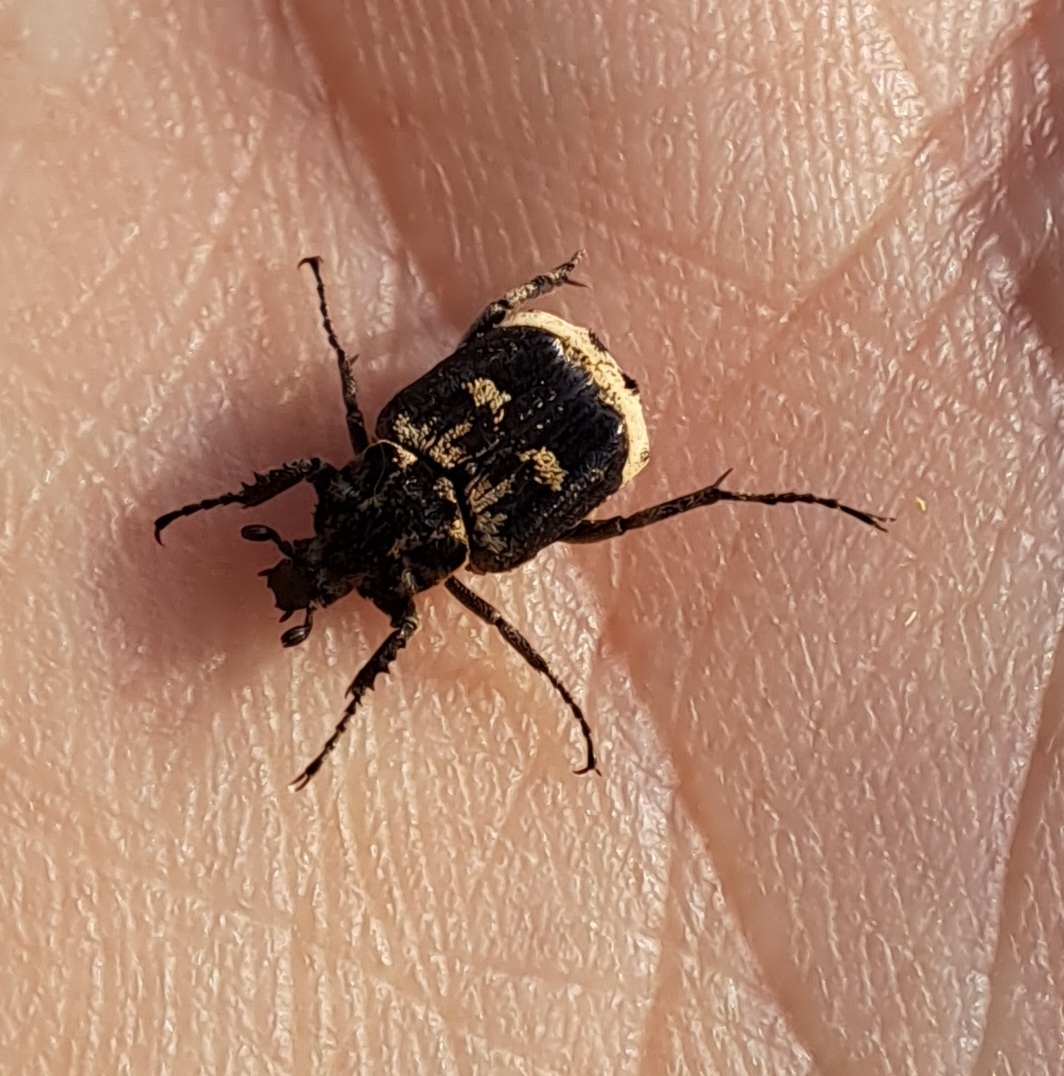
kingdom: Animalia
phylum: Arthropoda
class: Insecta
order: Coleoptera
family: Scarabaeidae
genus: Valgus
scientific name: Valgus hemipterus
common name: Bug flower chafer
